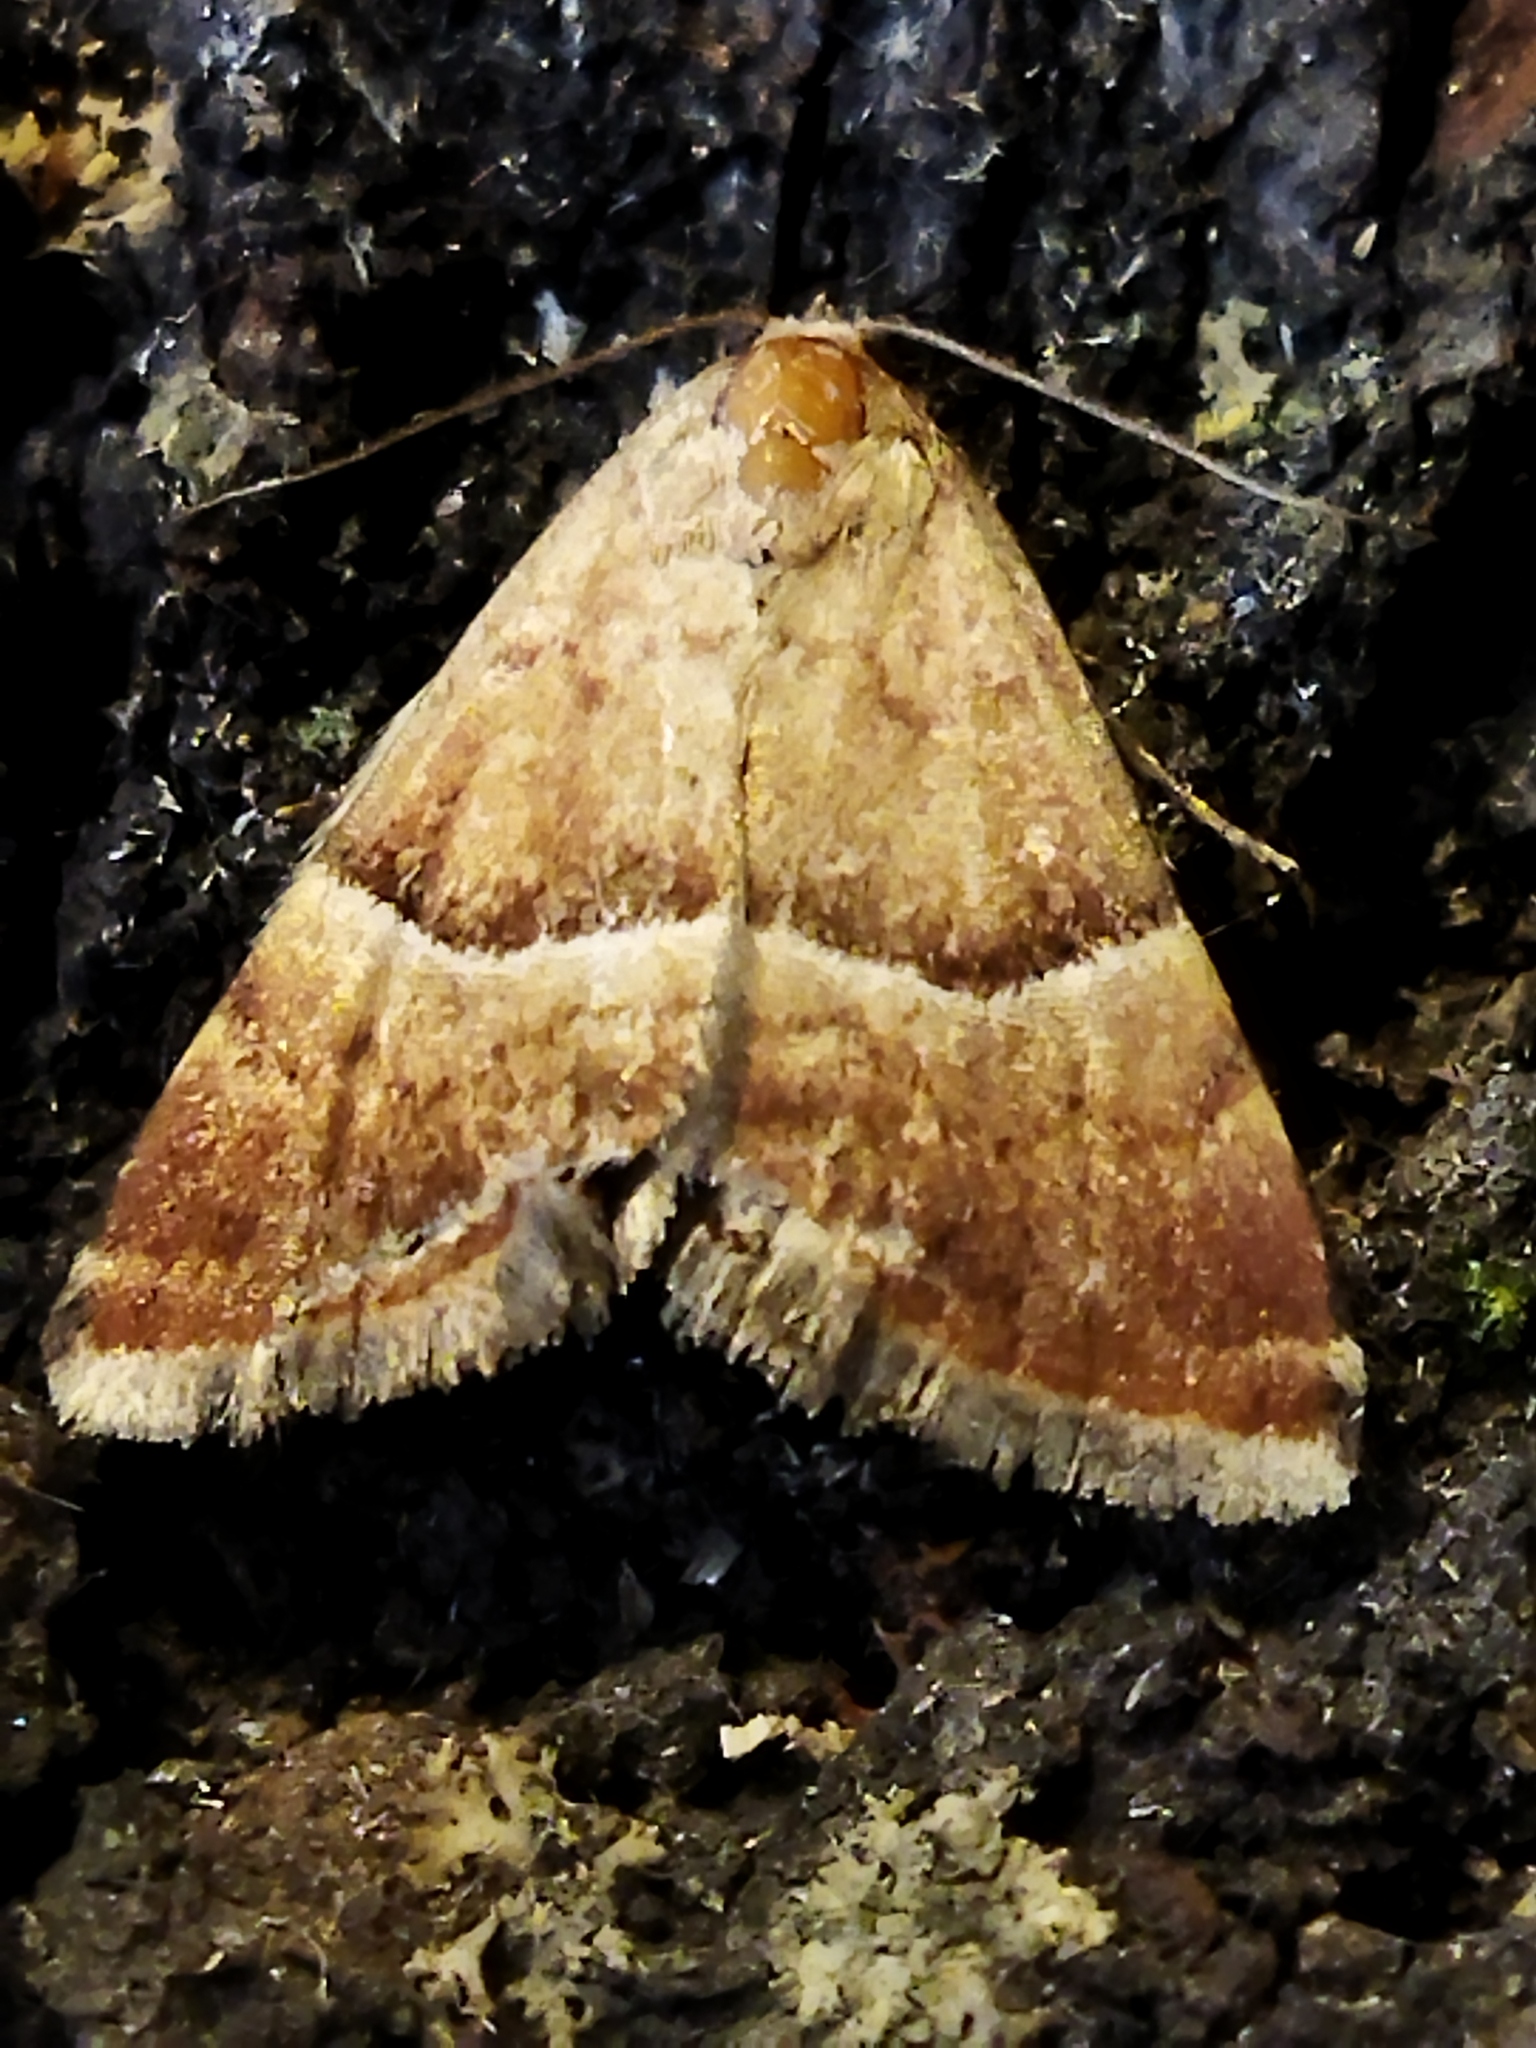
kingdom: Animalia
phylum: Arthropoda
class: Insecta
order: Lepidoptera
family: Noctuidae
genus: Odice
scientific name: Odice suava
